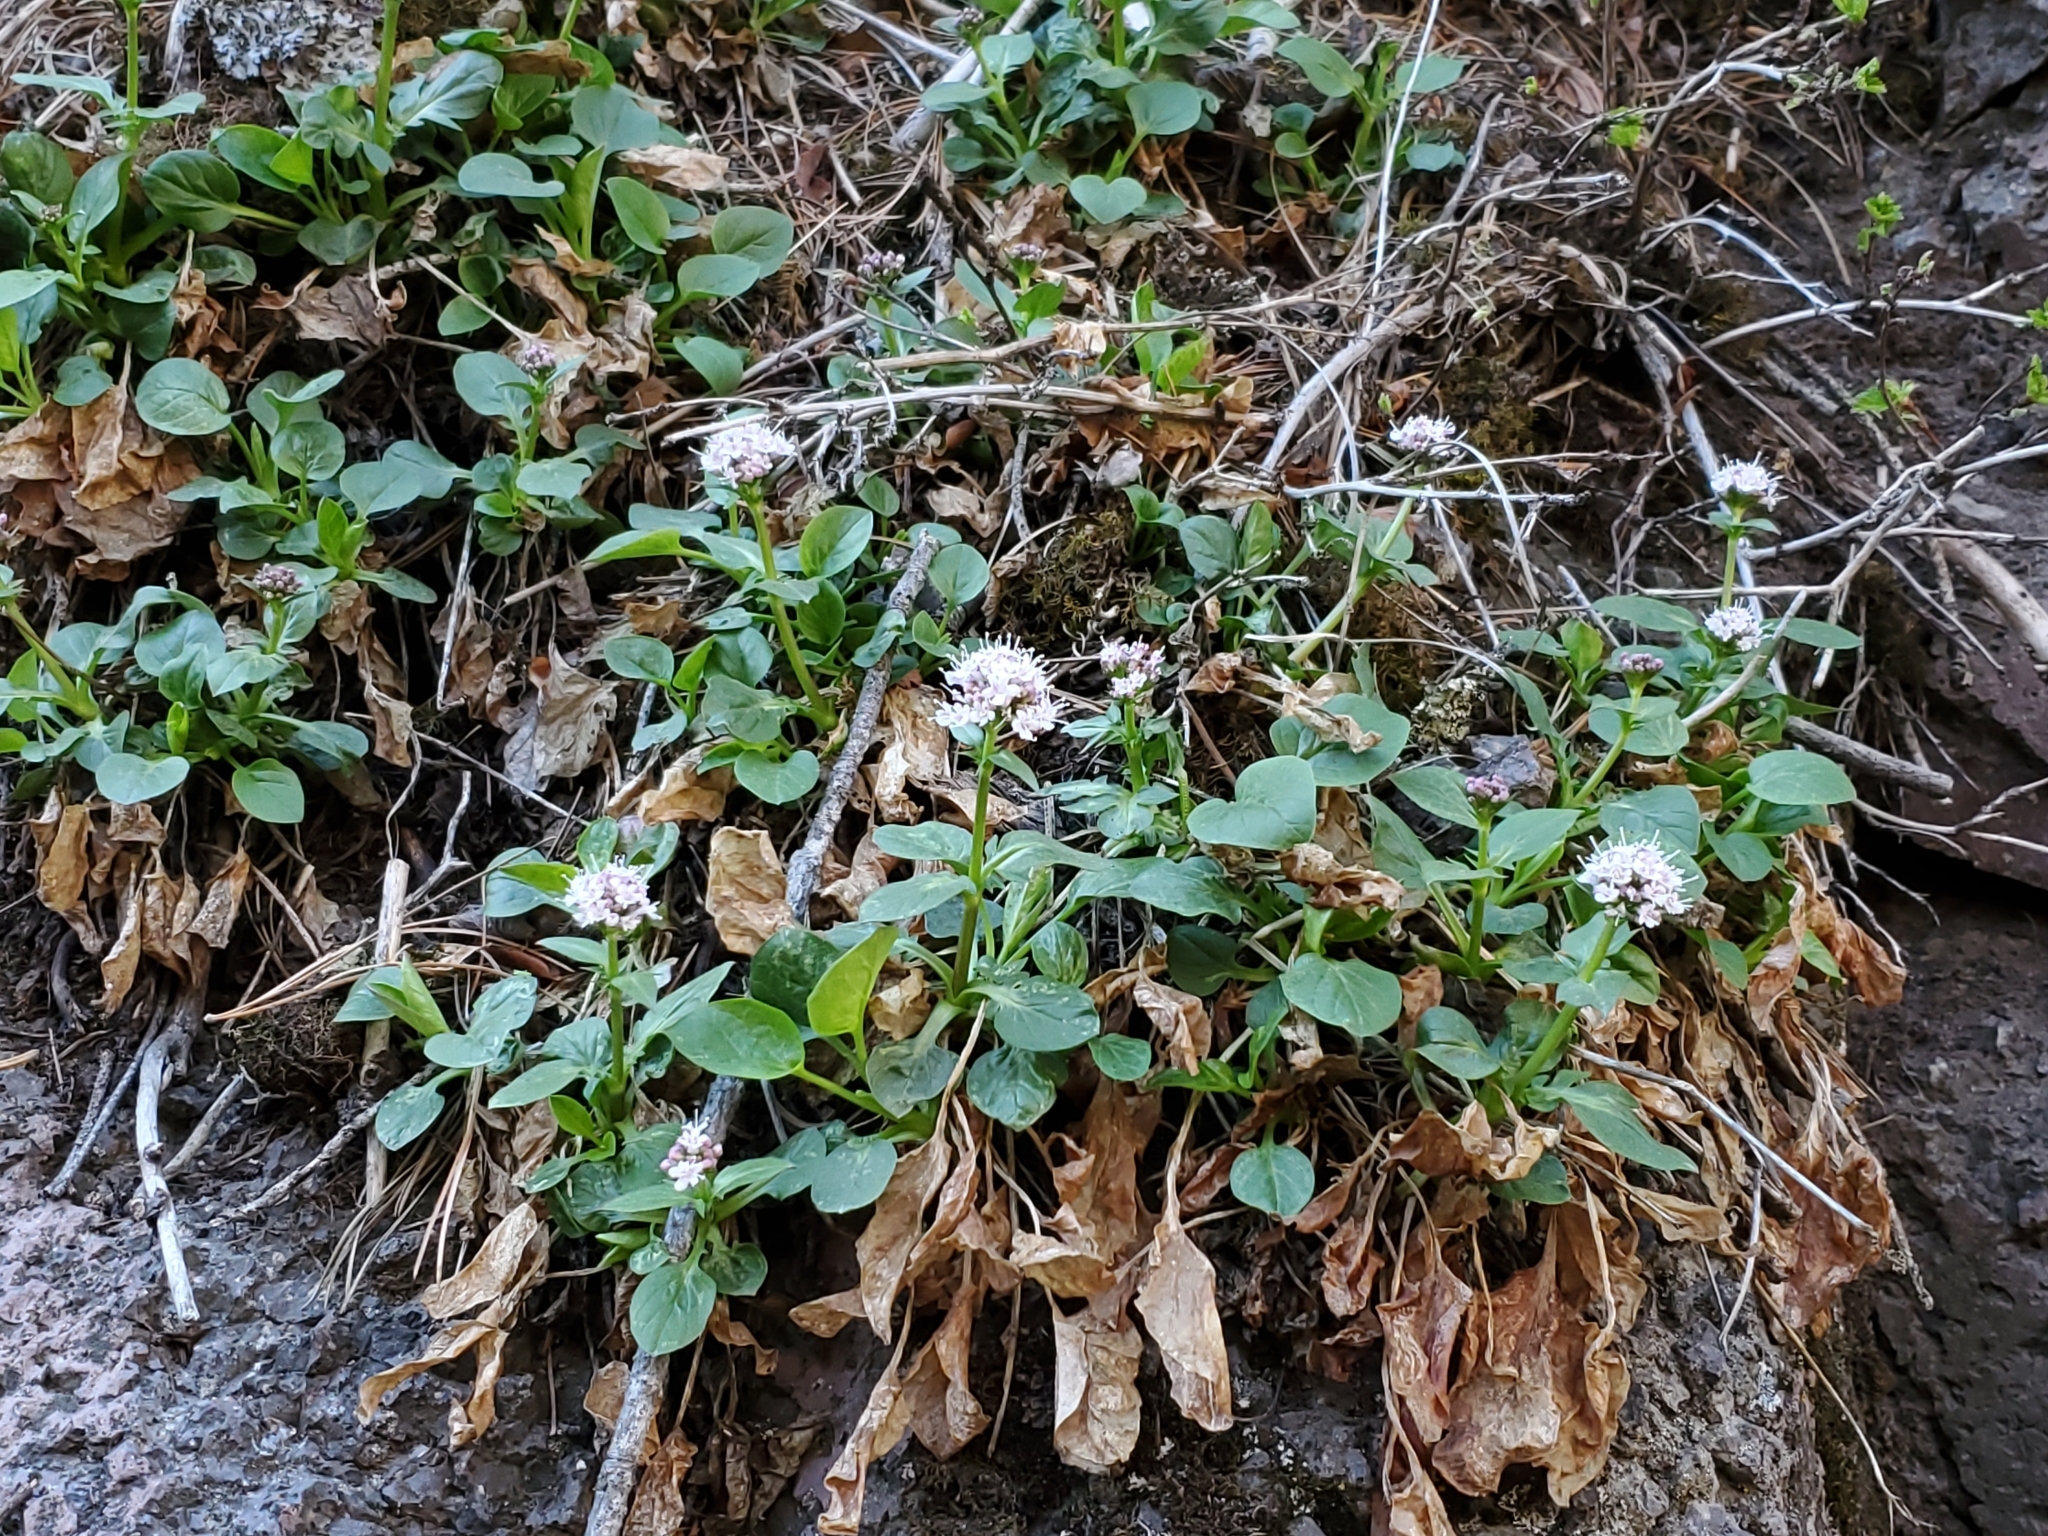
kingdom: Plantae
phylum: Tracheophyta
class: Magnoliopsida
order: Dipsacales
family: Caprifoliaceae
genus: Valeriana
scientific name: Valeriana arizonica
